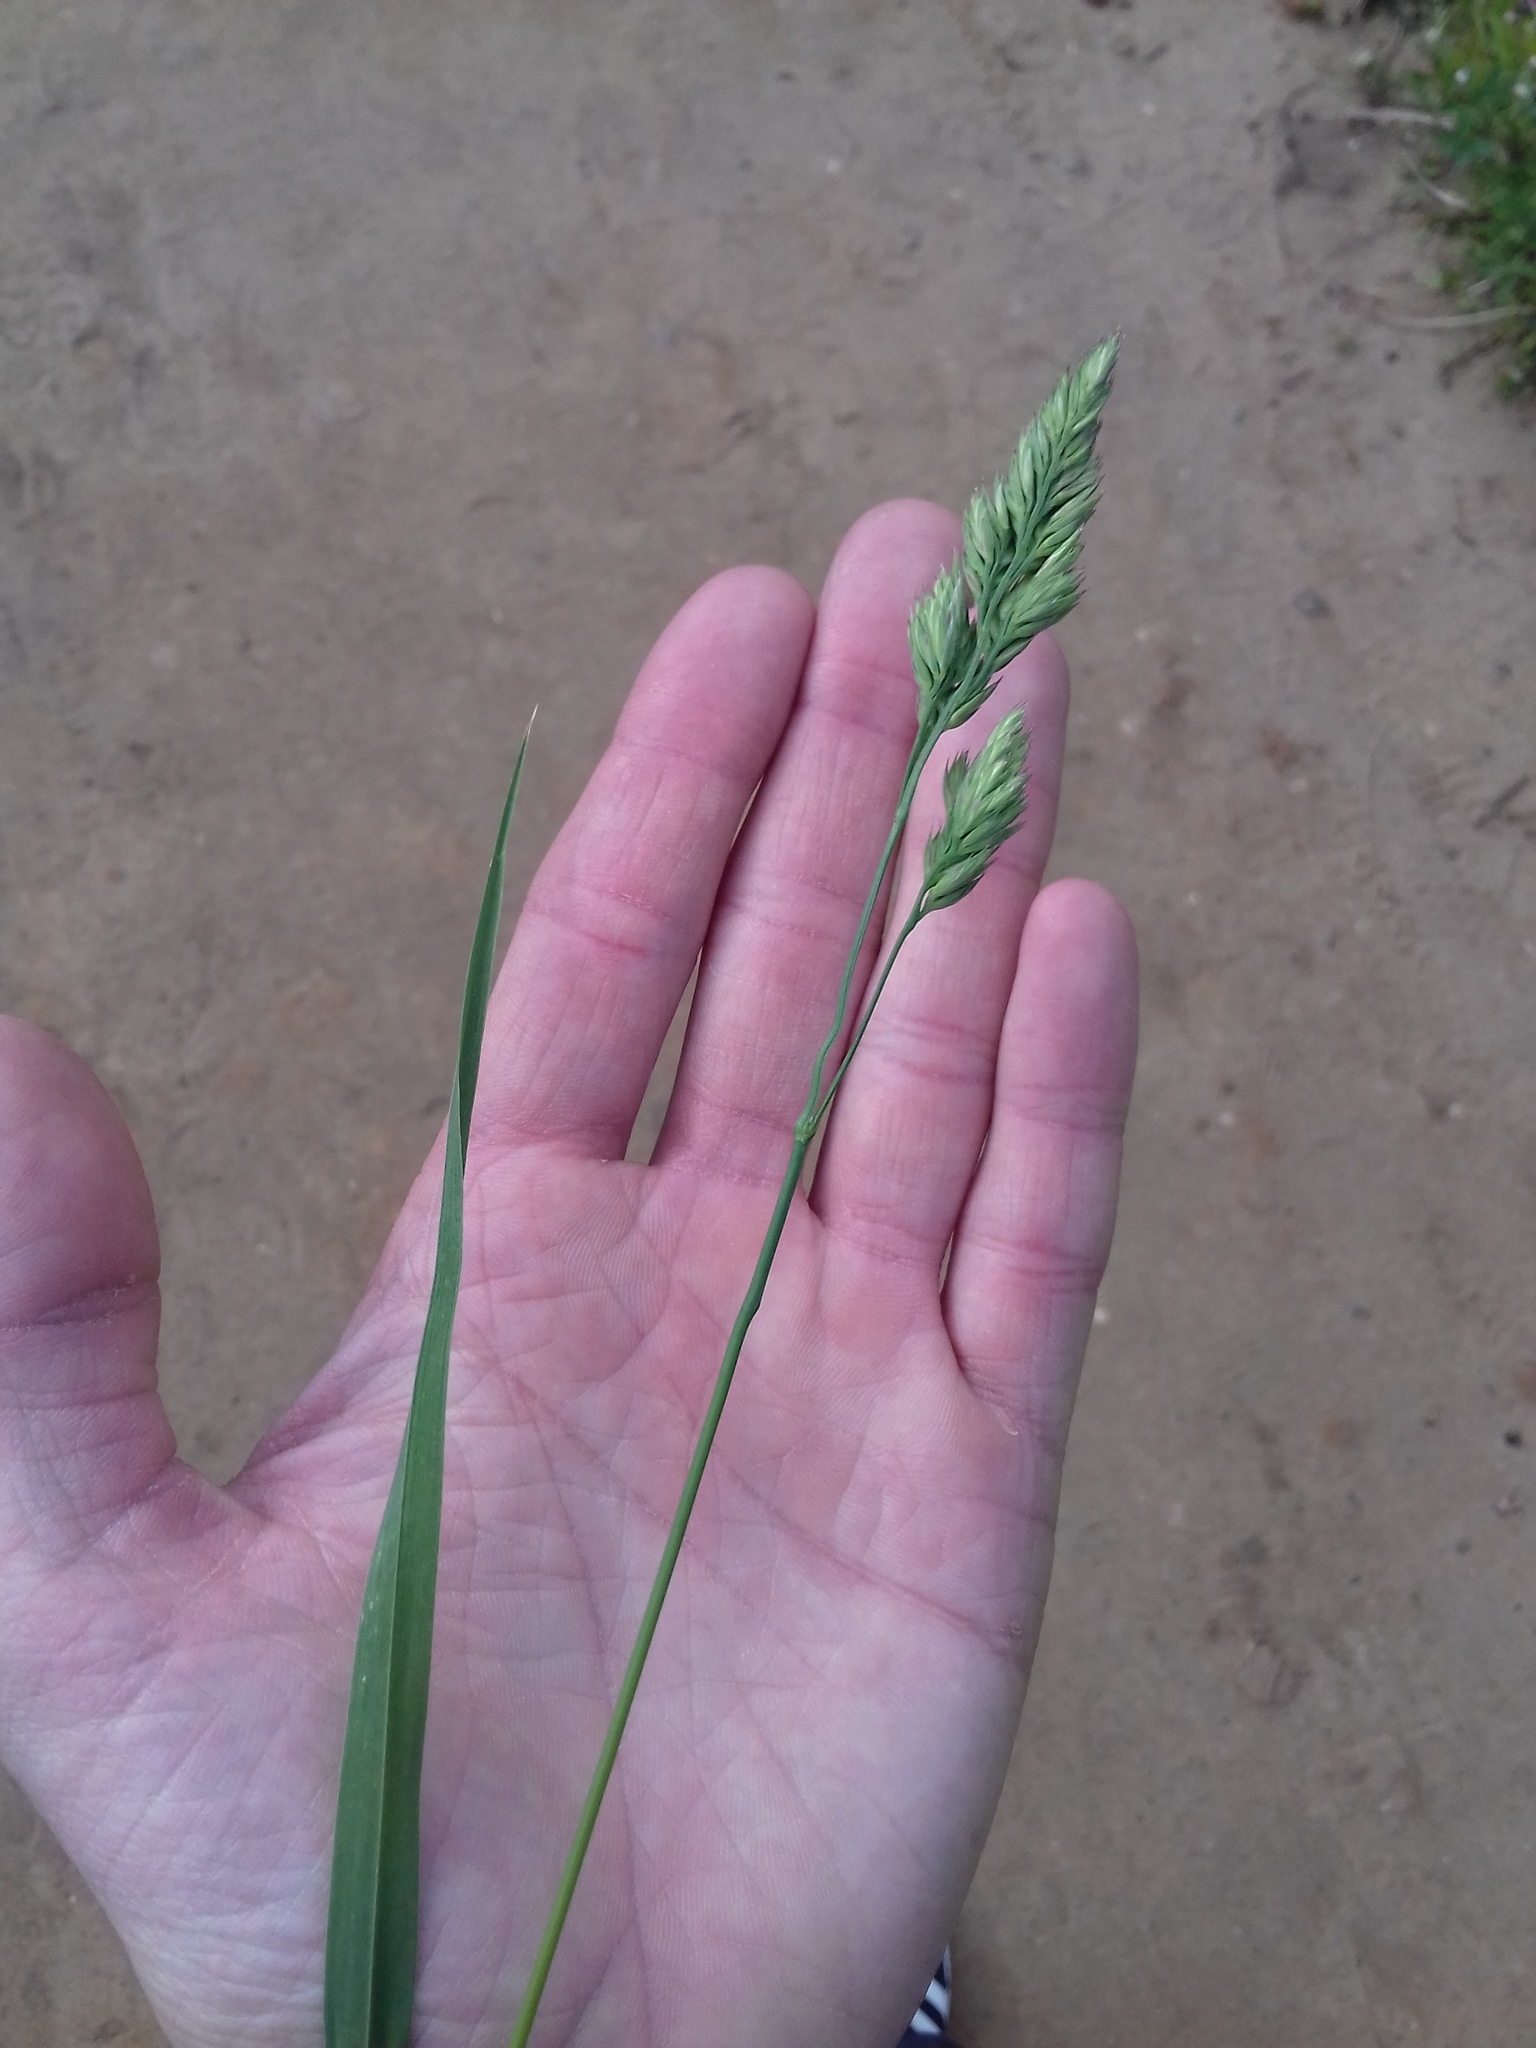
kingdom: Plantae
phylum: Tracheophyta
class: Liliopsida
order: Poales
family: Poaceae
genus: Dactylis
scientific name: Dactylis glomerata
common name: Orchardgrass
